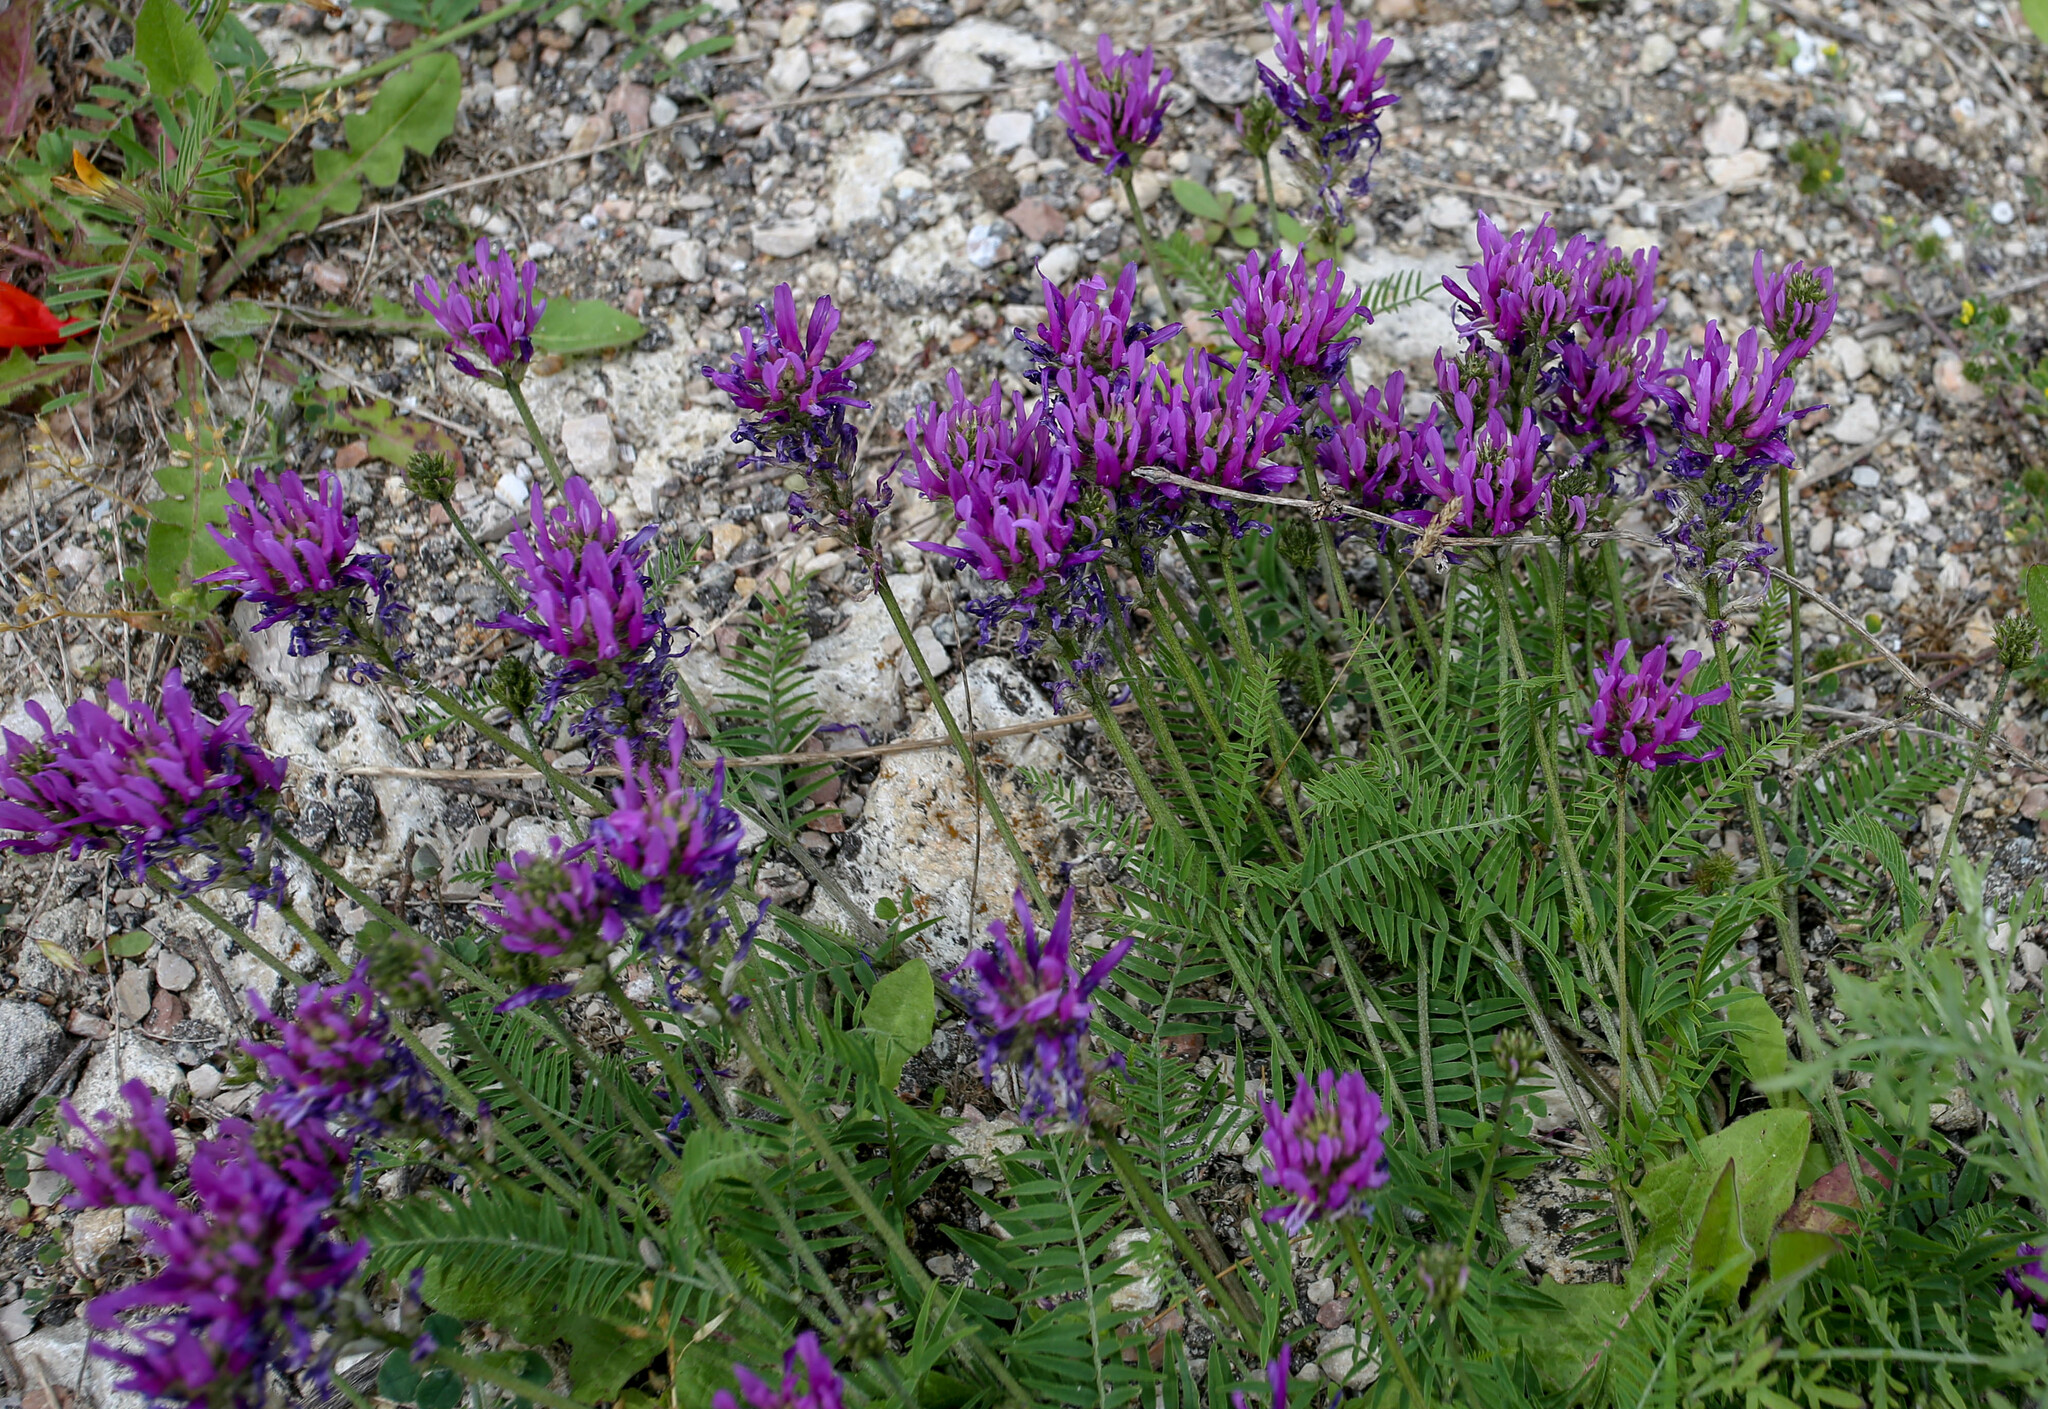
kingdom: Plantae
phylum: Tracheophyta
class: Magnoliopsida
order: Fabales
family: Fabaceae
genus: Astragalus
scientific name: Astragalus onobrychis
